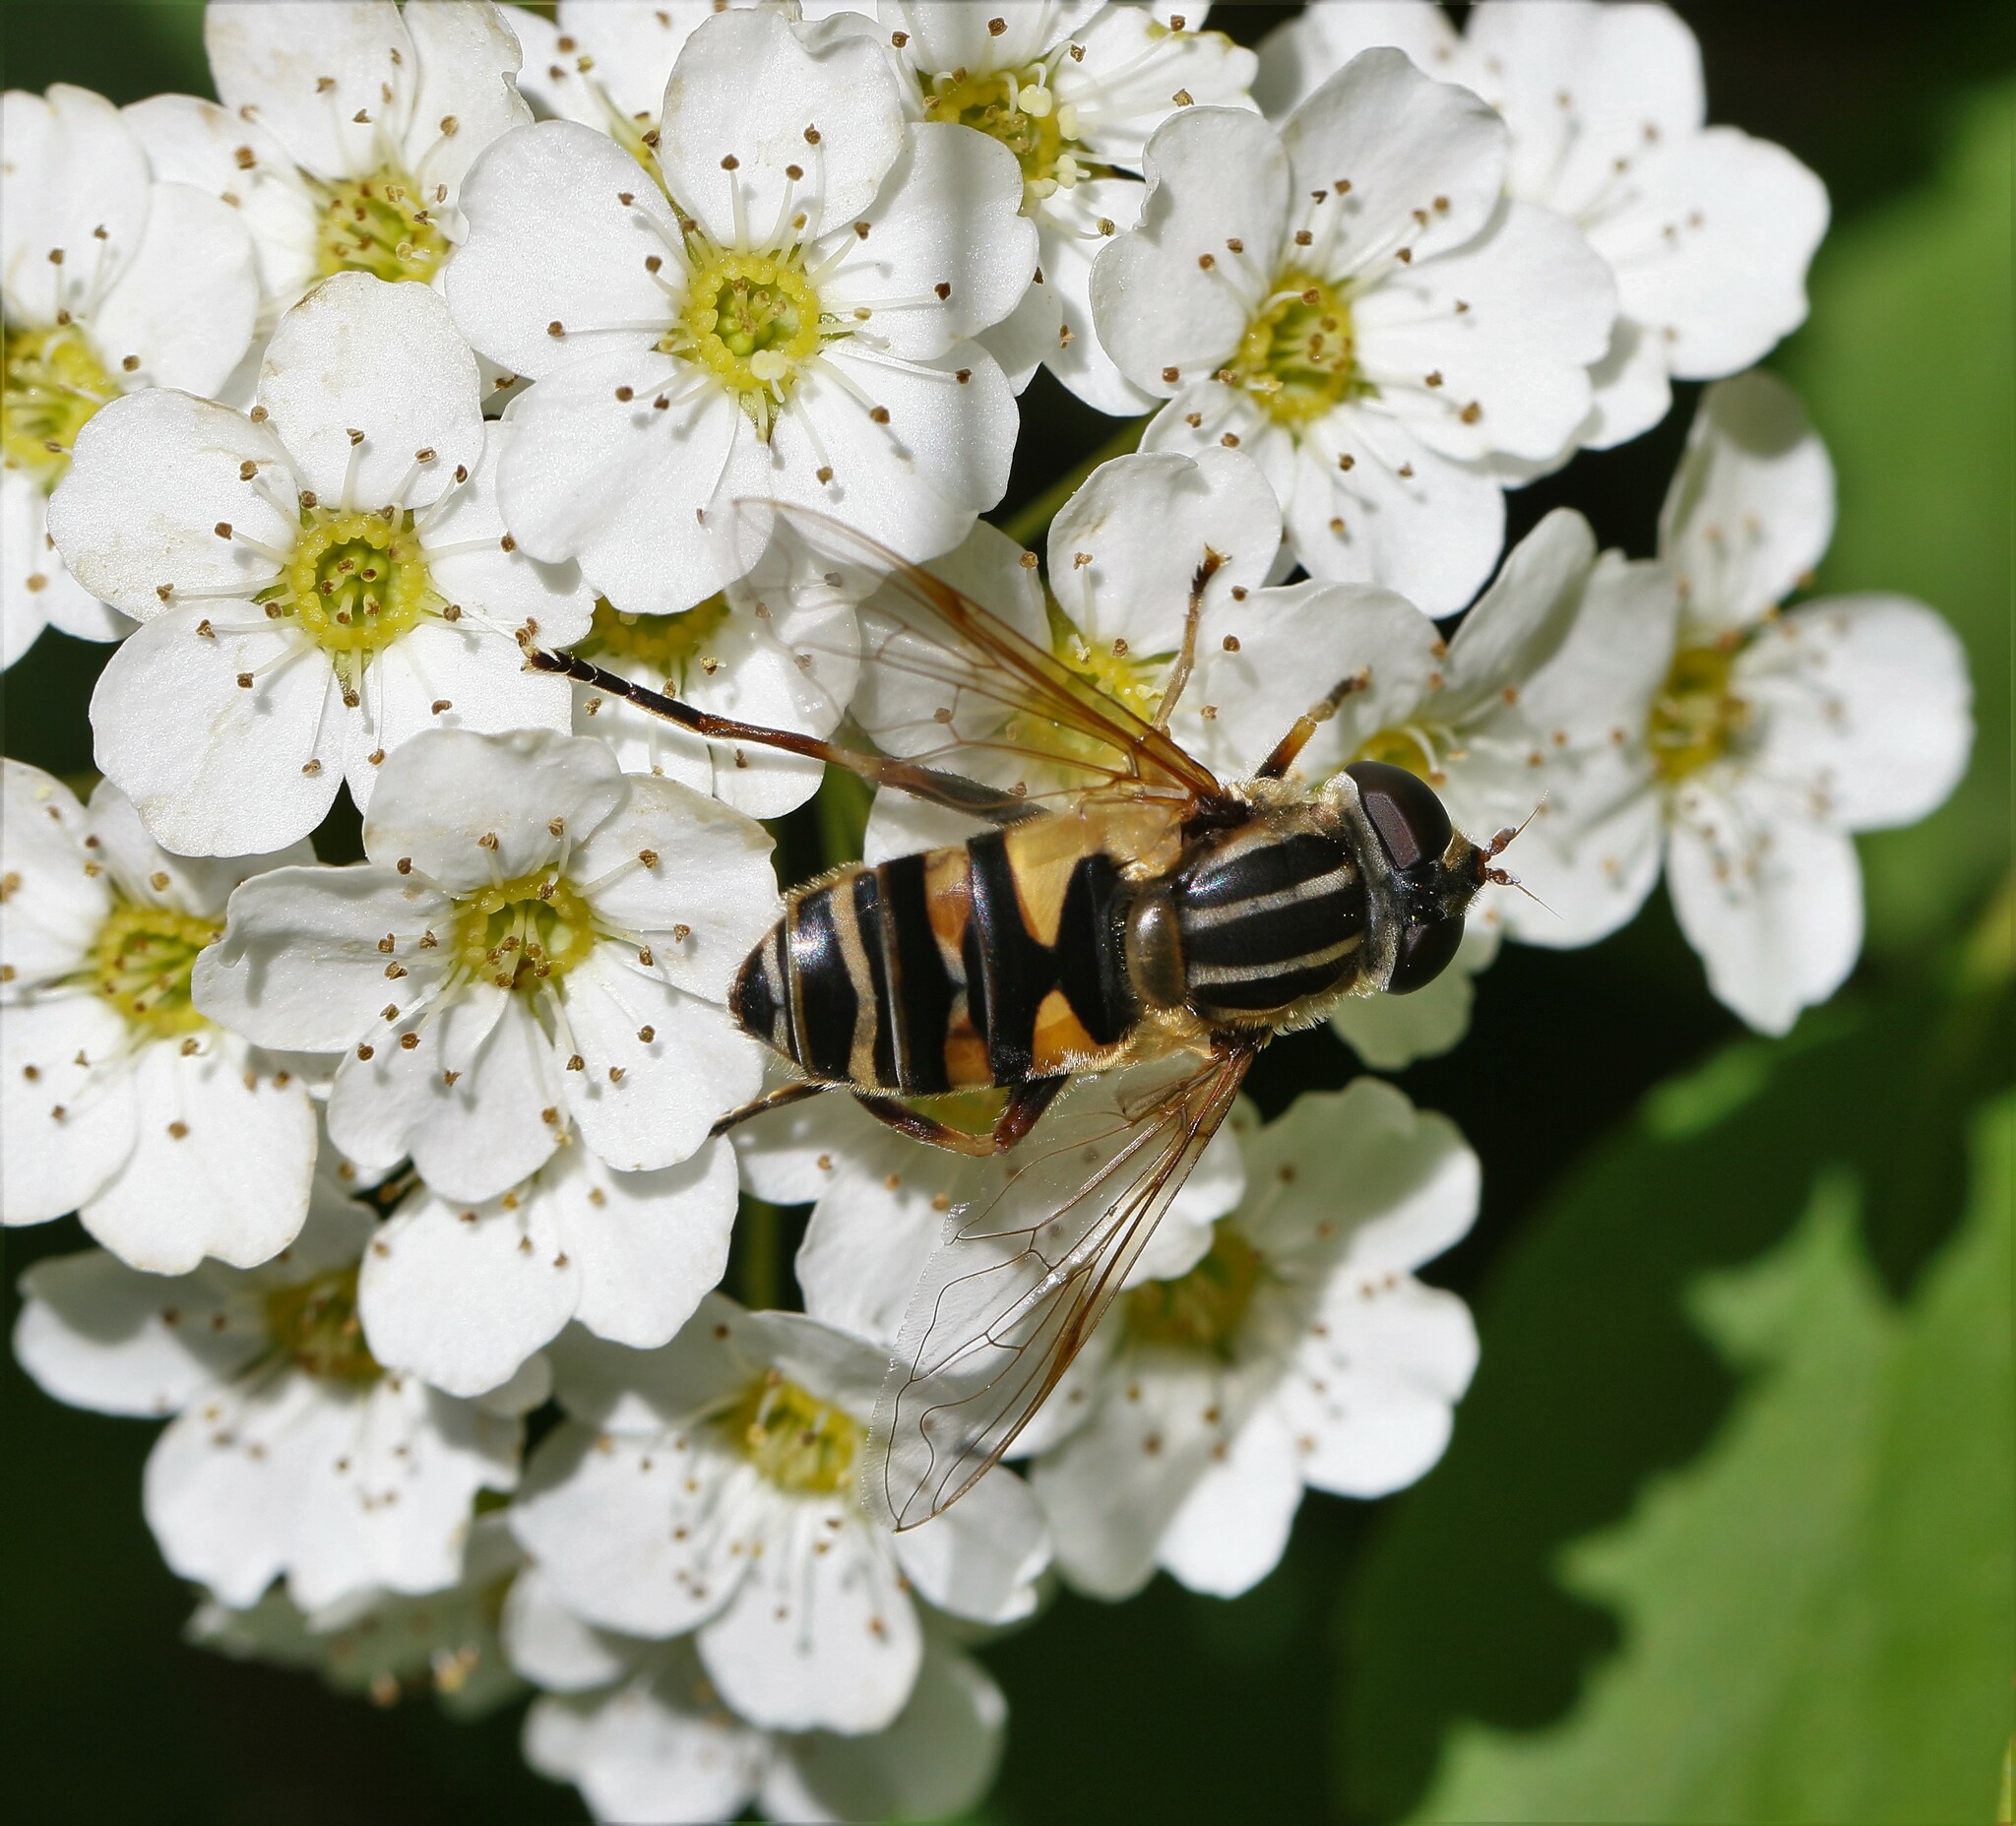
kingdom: Animalia
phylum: Arthropoda
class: Insecta
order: Diptera
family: Syrphidae
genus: Helophilus
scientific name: Helophilus fasciatus
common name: Narrow-headed marsh fly
